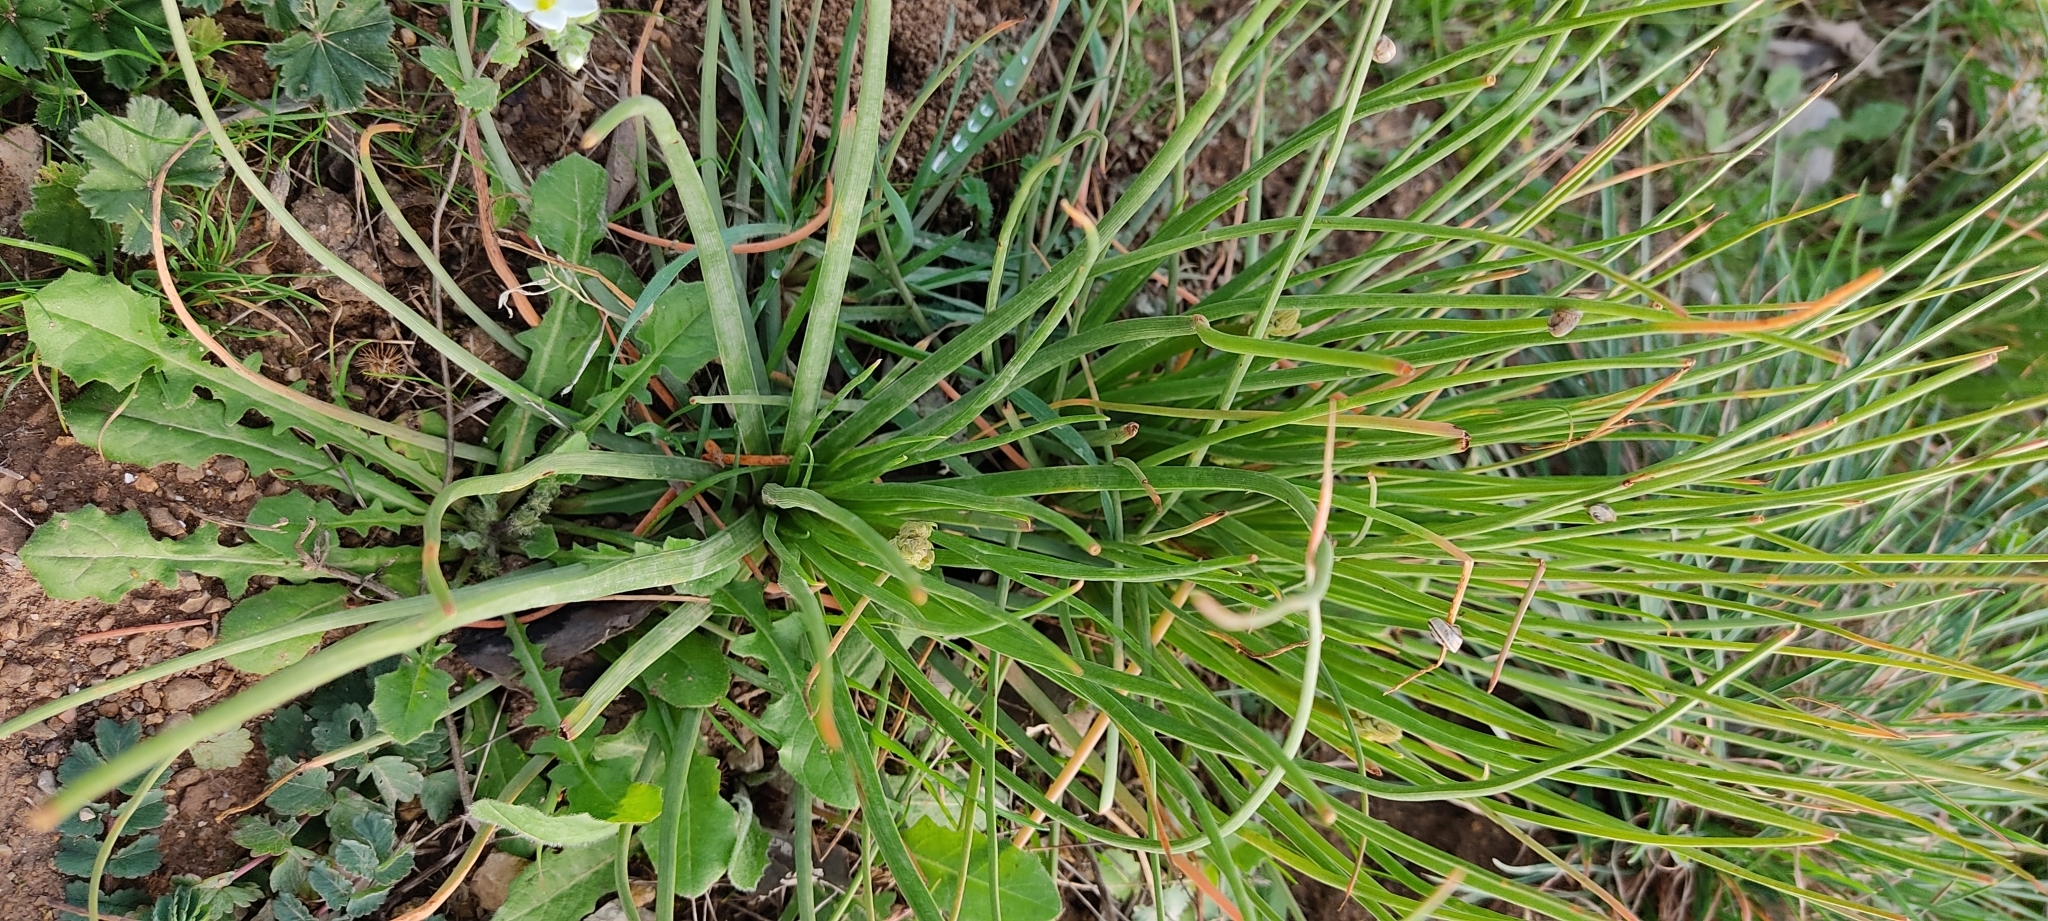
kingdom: Plantae
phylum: Tracheophyta
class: Liliopsida
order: Asparagales
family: Asphodelaceae
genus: Asphodelus
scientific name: Asphodelus fistulosus
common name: Onionweed
